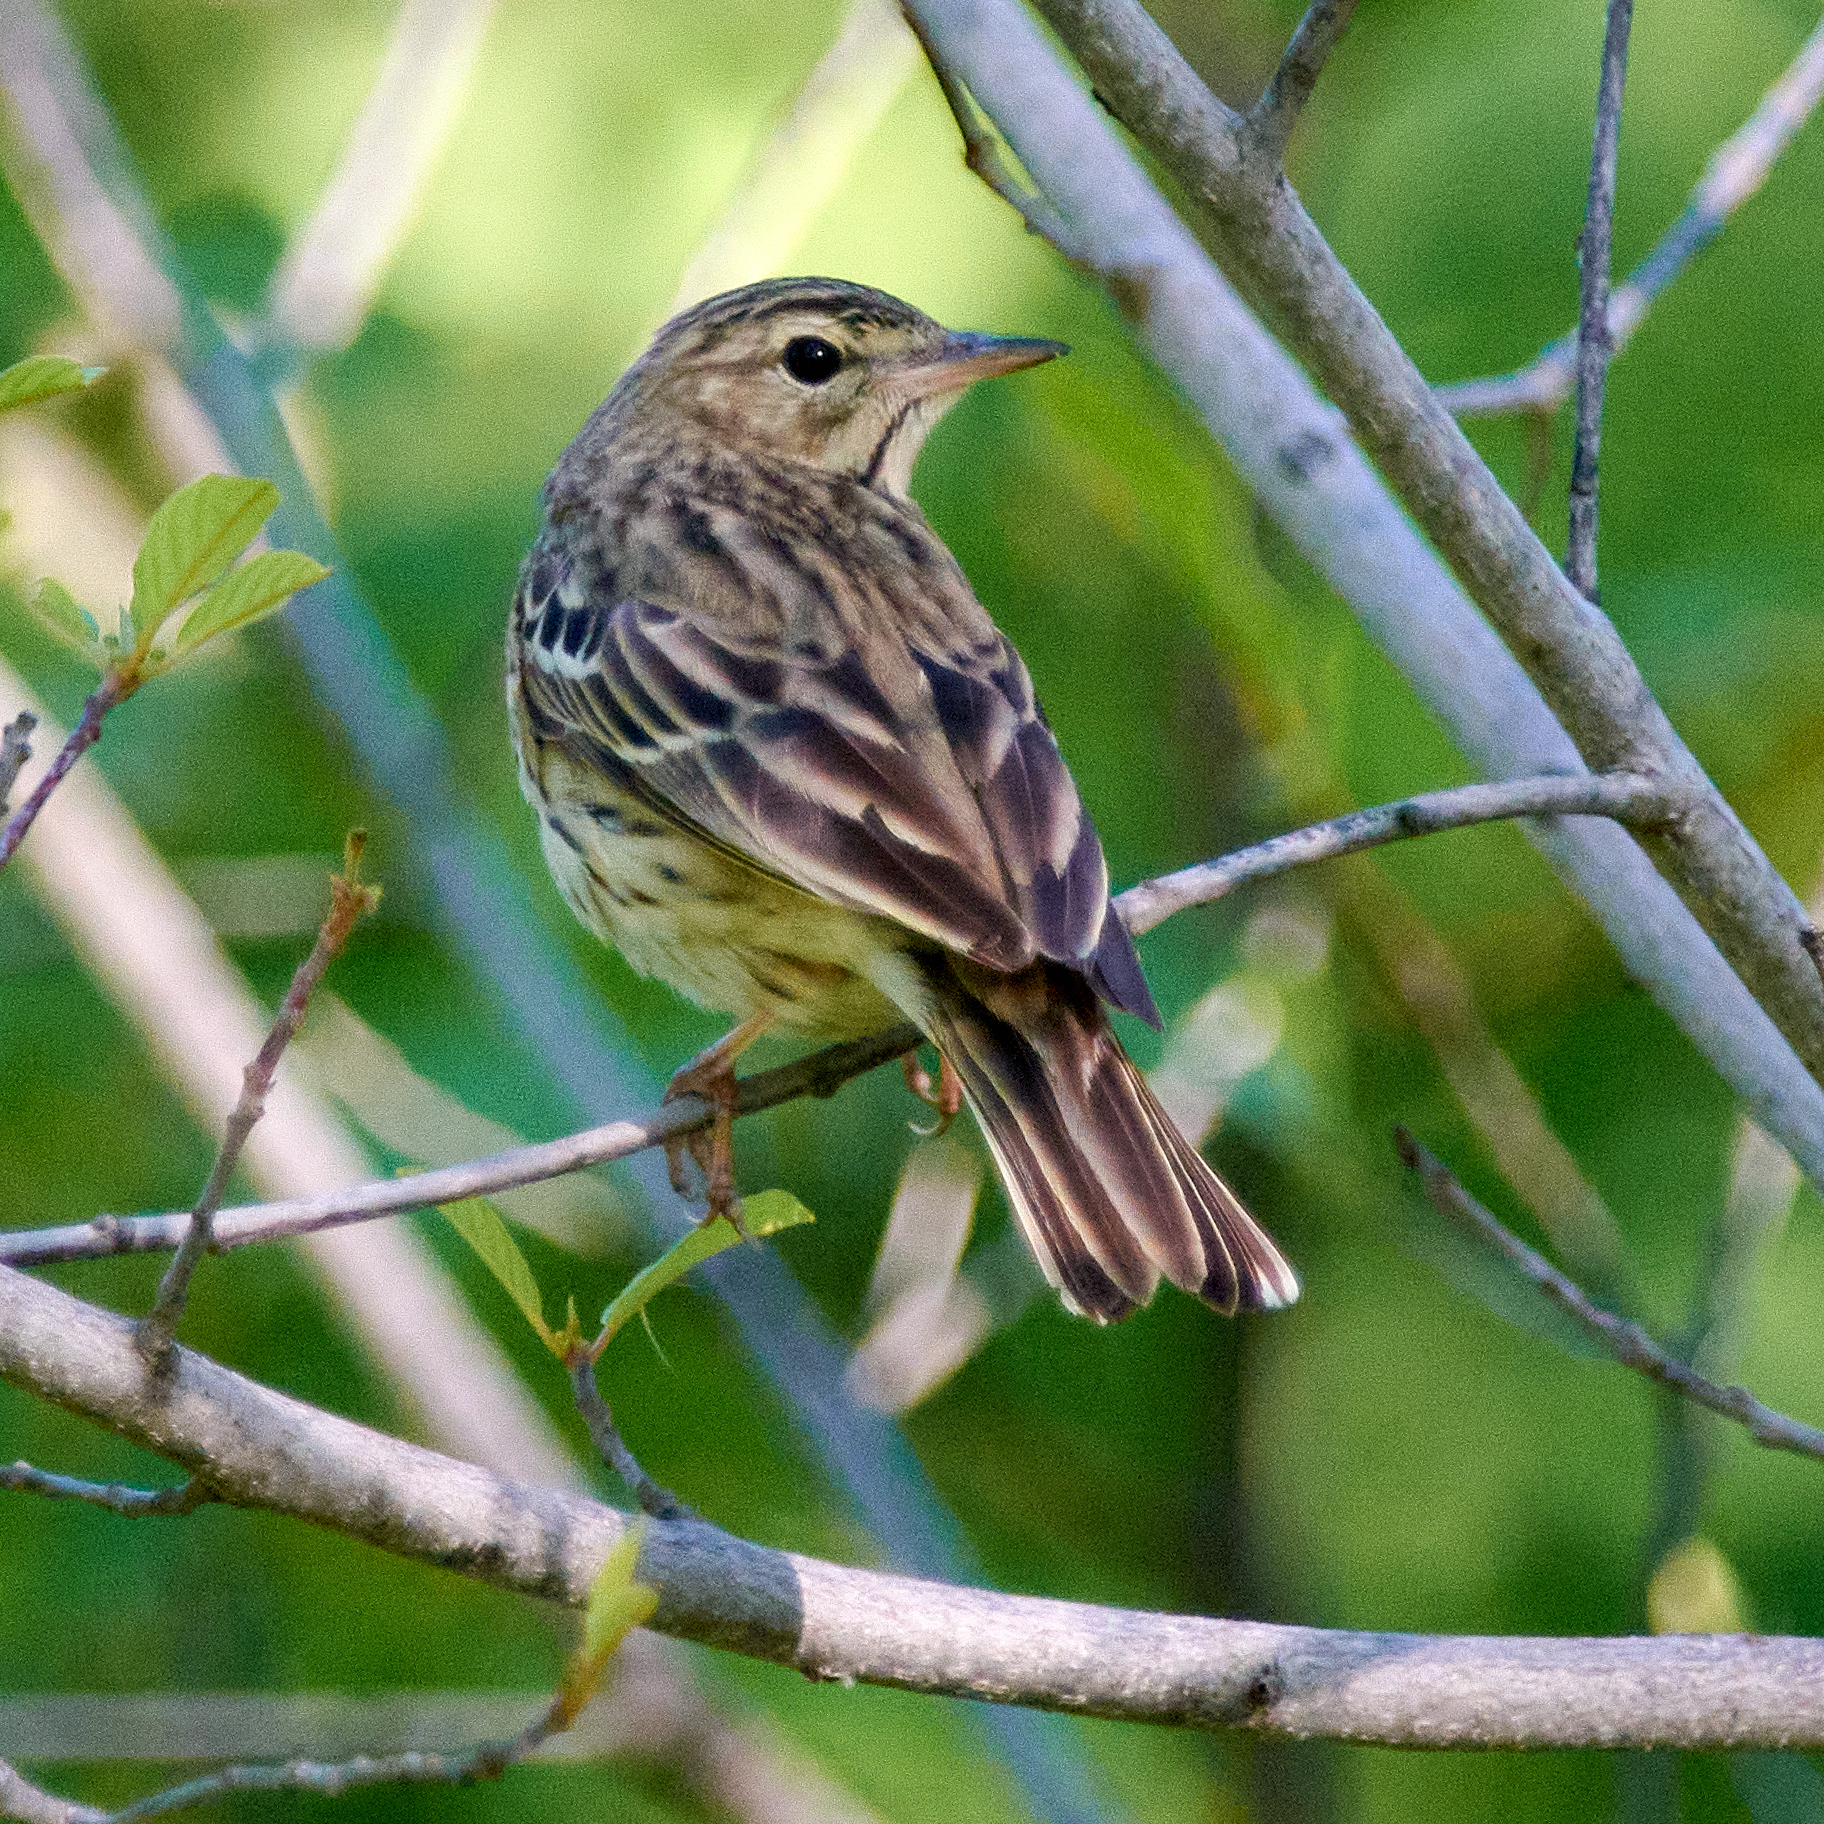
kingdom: Animalia
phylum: Chordata
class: Aves
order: Passeriformes
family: Motacillidae
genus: Anthus
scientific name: Anthus trivialis
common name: Tree pipit
